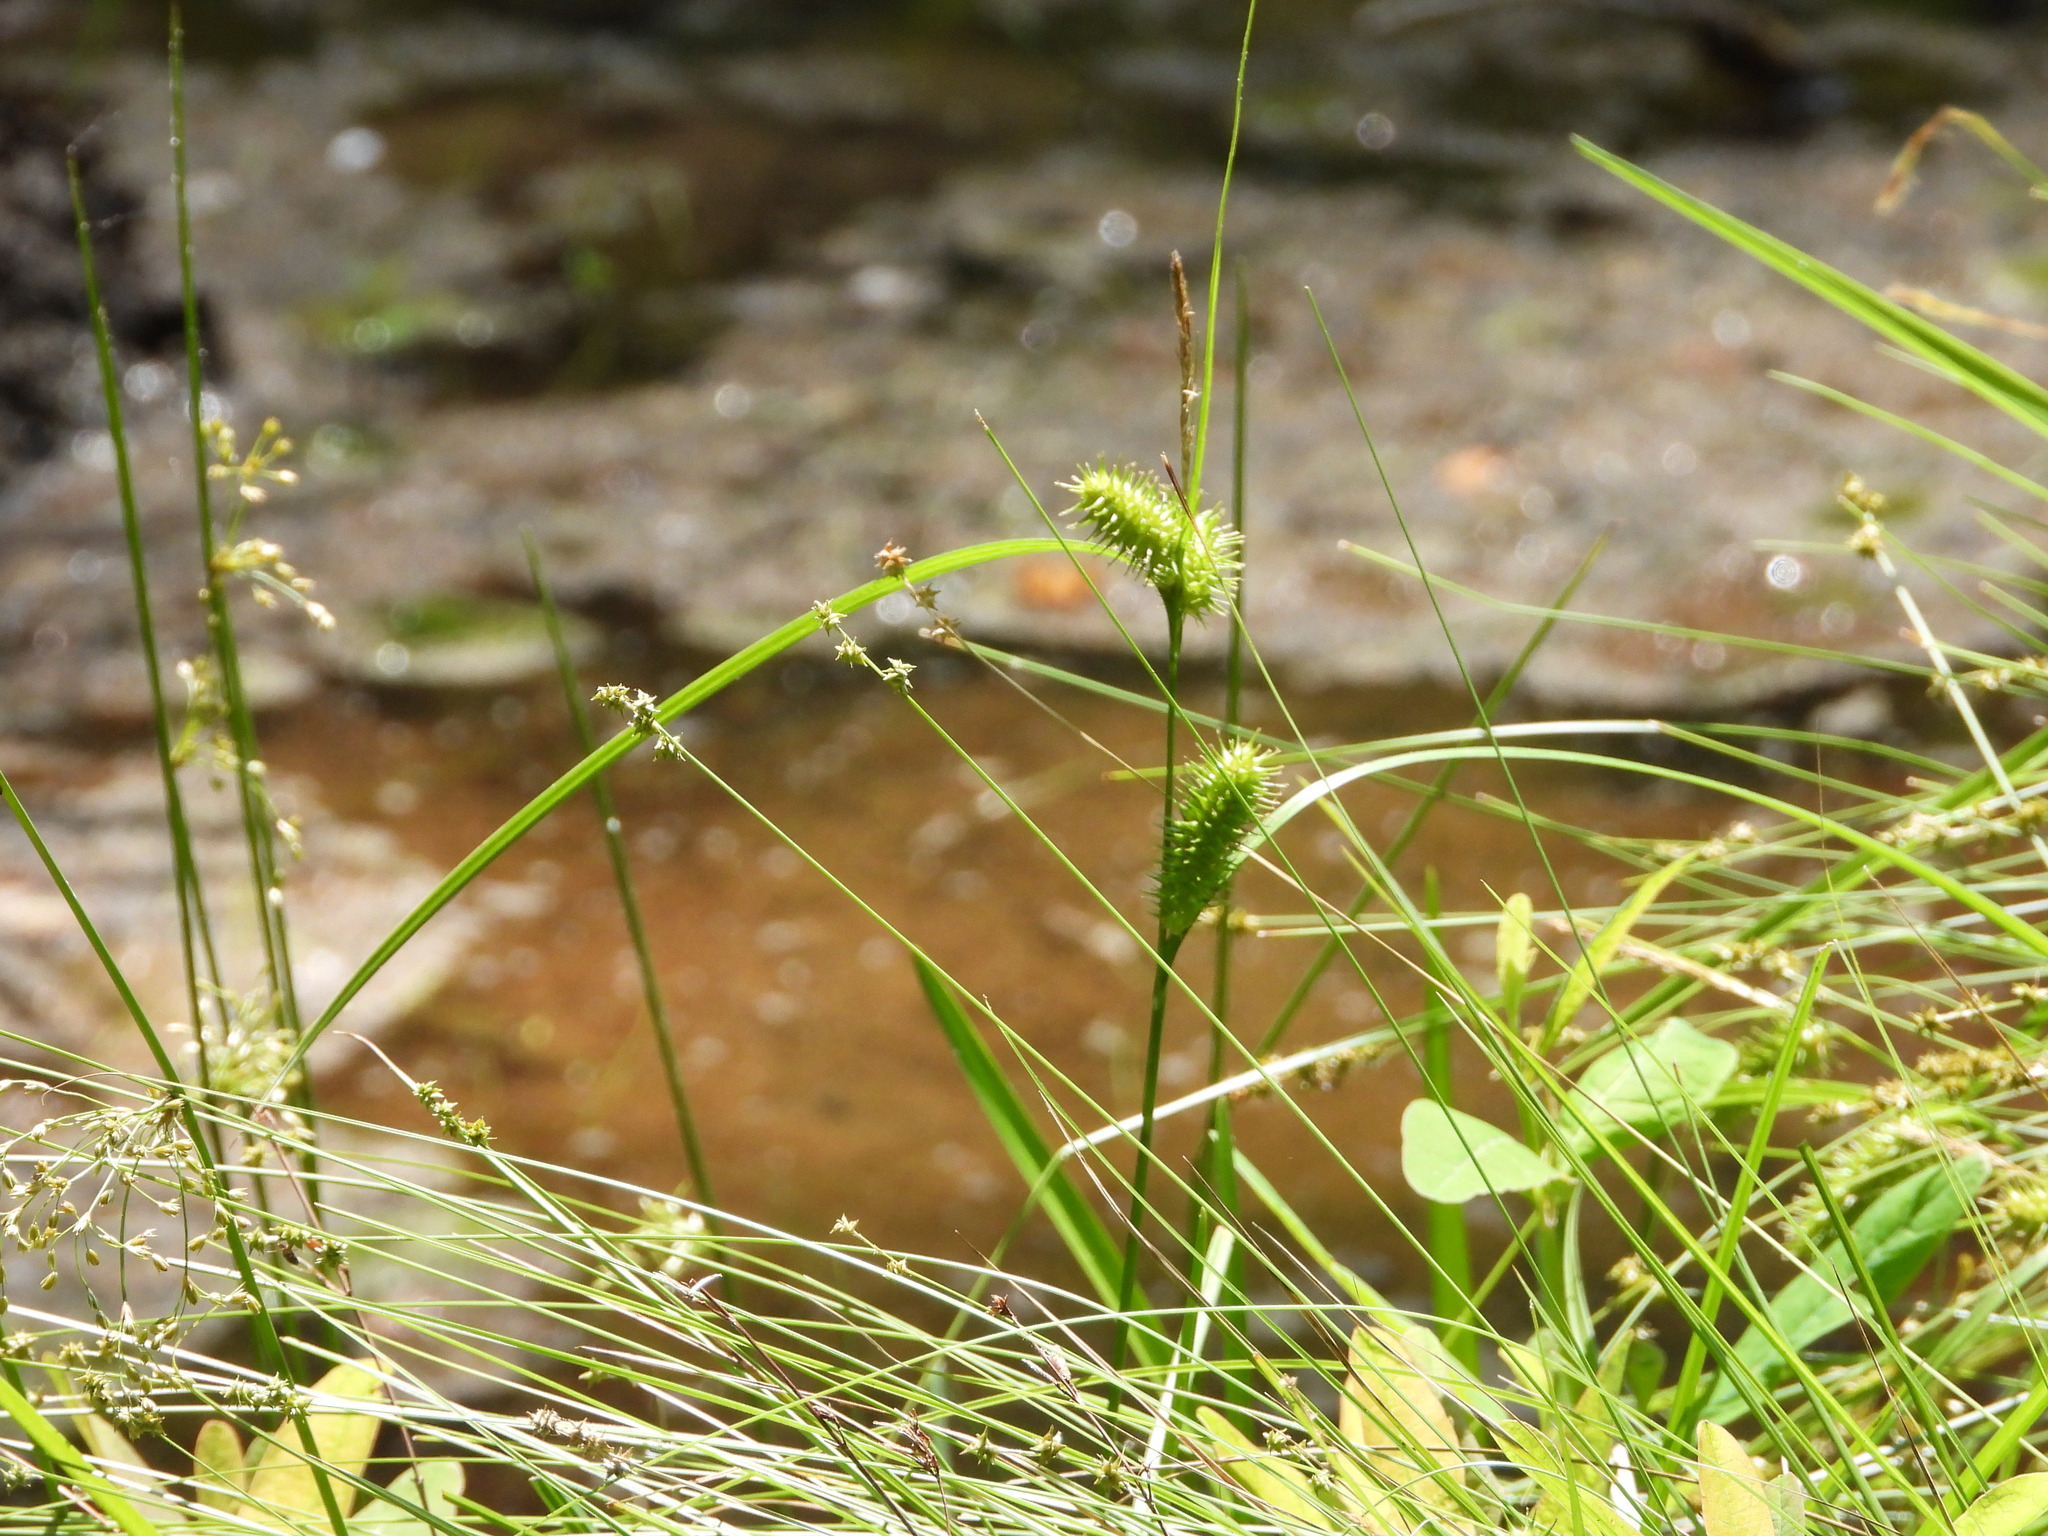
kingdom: Plantae
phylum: Tracheophyta
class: Liliopsida
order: Poales
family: Cyperaceae
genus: Carex
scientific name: Carex lurida
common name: Sallow sedge
